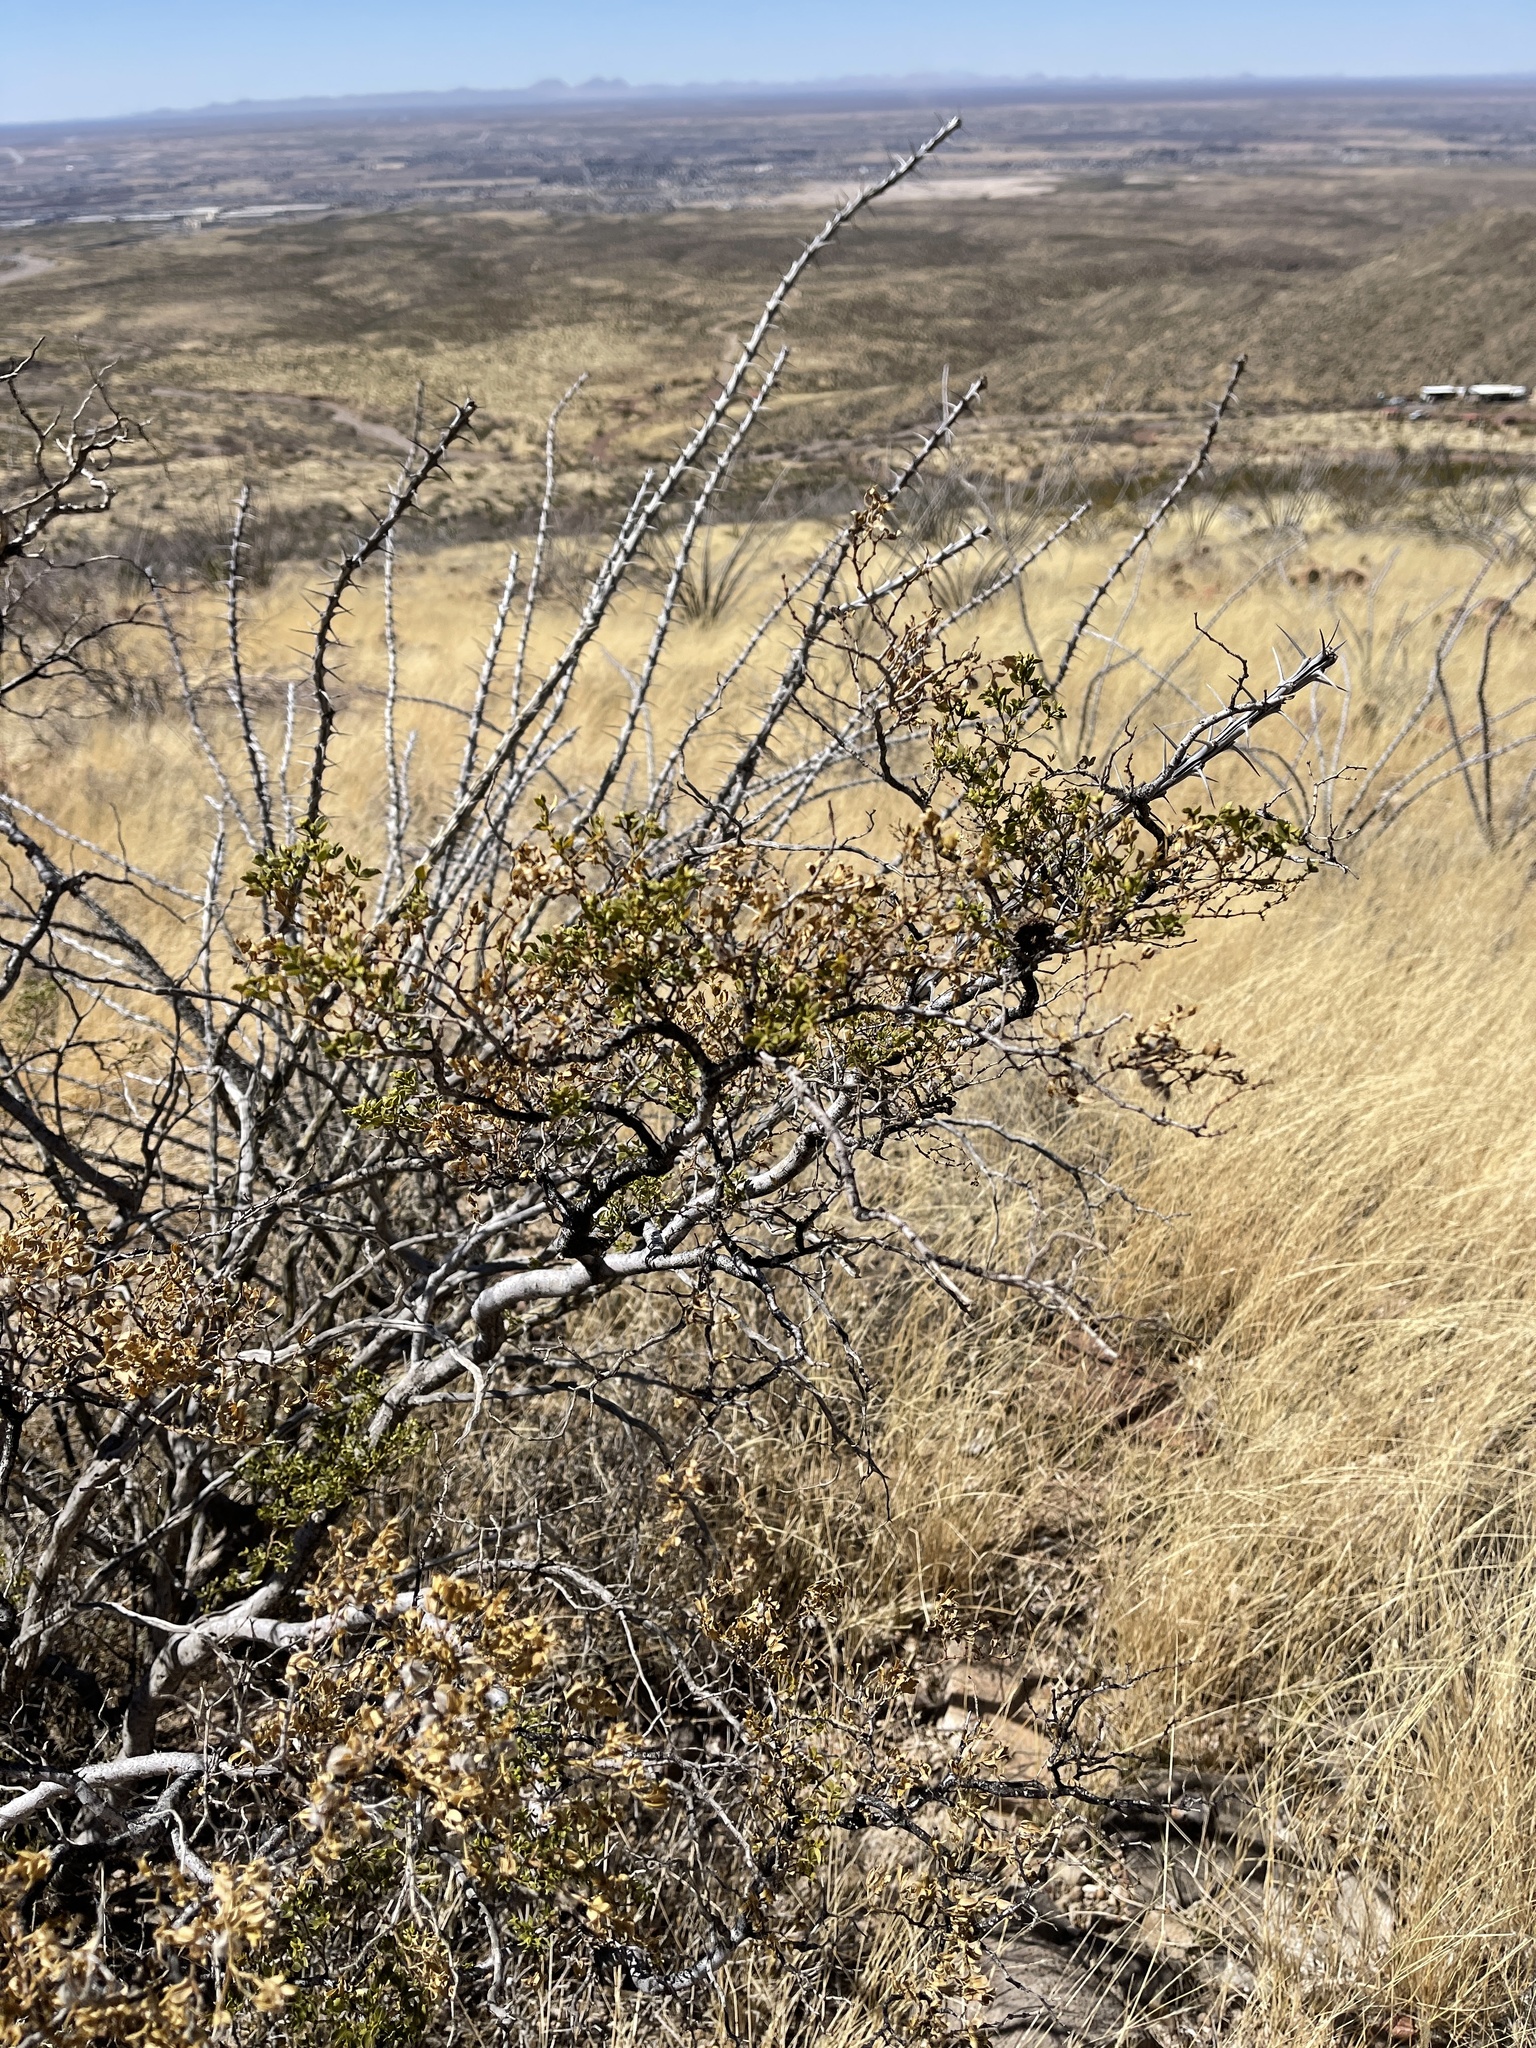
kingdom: Plantae
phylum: Tracheophyta
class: Magnoliopsida
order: Zygophyllales
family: Zygophyllaceae
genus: Larrea
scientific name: Larrea tridentata
